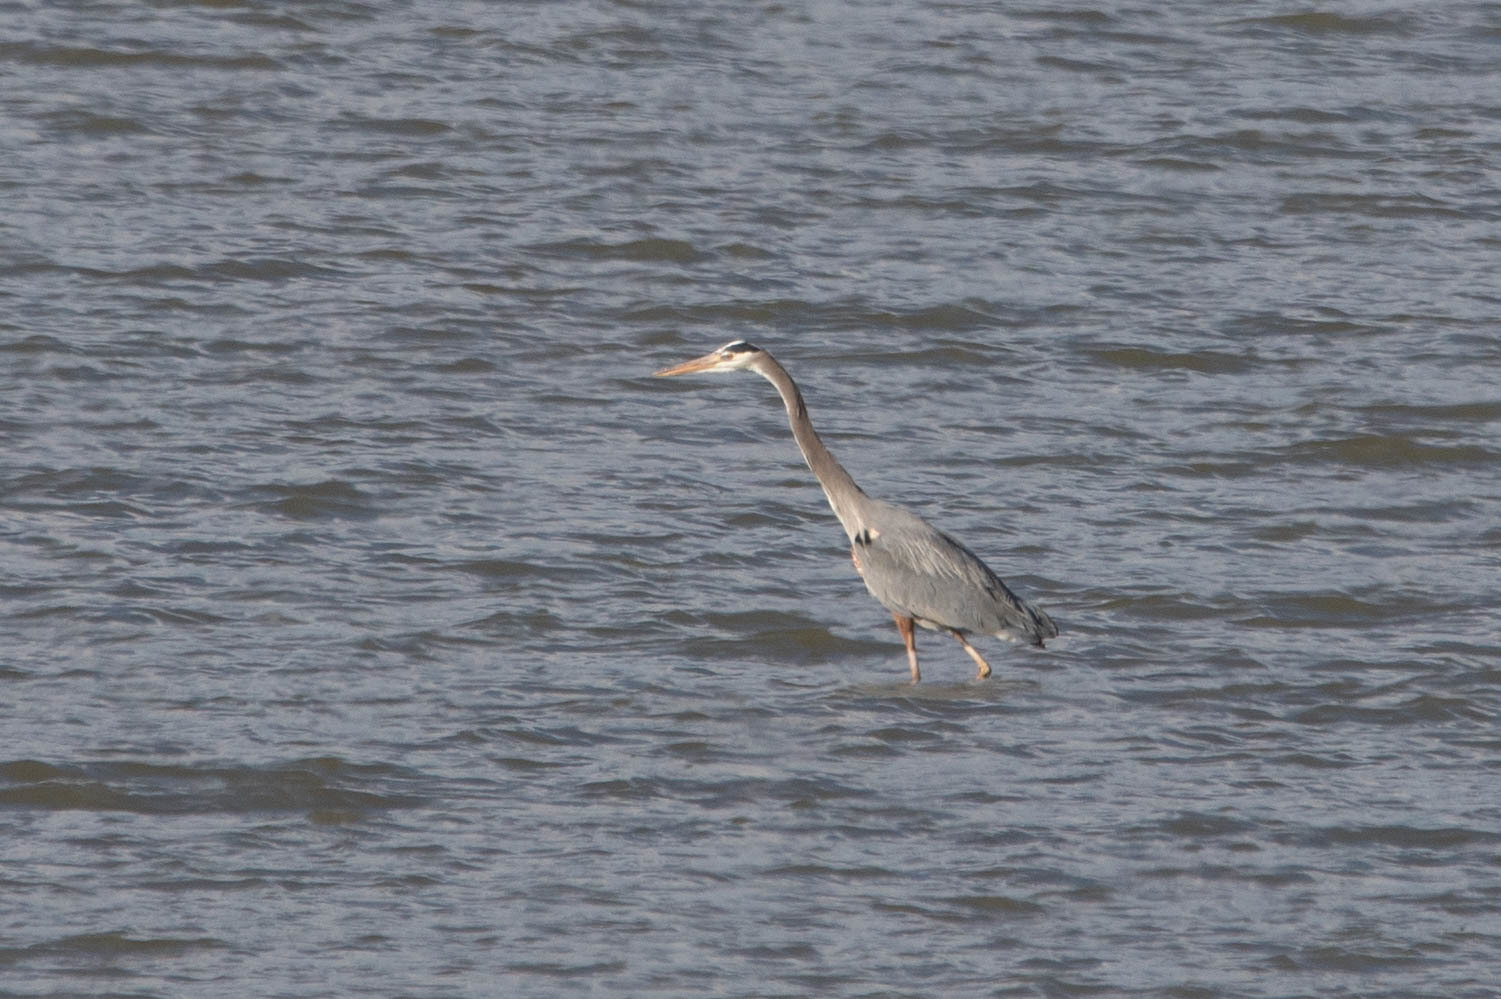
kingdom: Animalia
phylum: Chordata
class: Aves
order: Pelecaniformes
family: Ardeidae
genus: Ardea
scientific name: Ardea herodias
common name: Great blue heron
